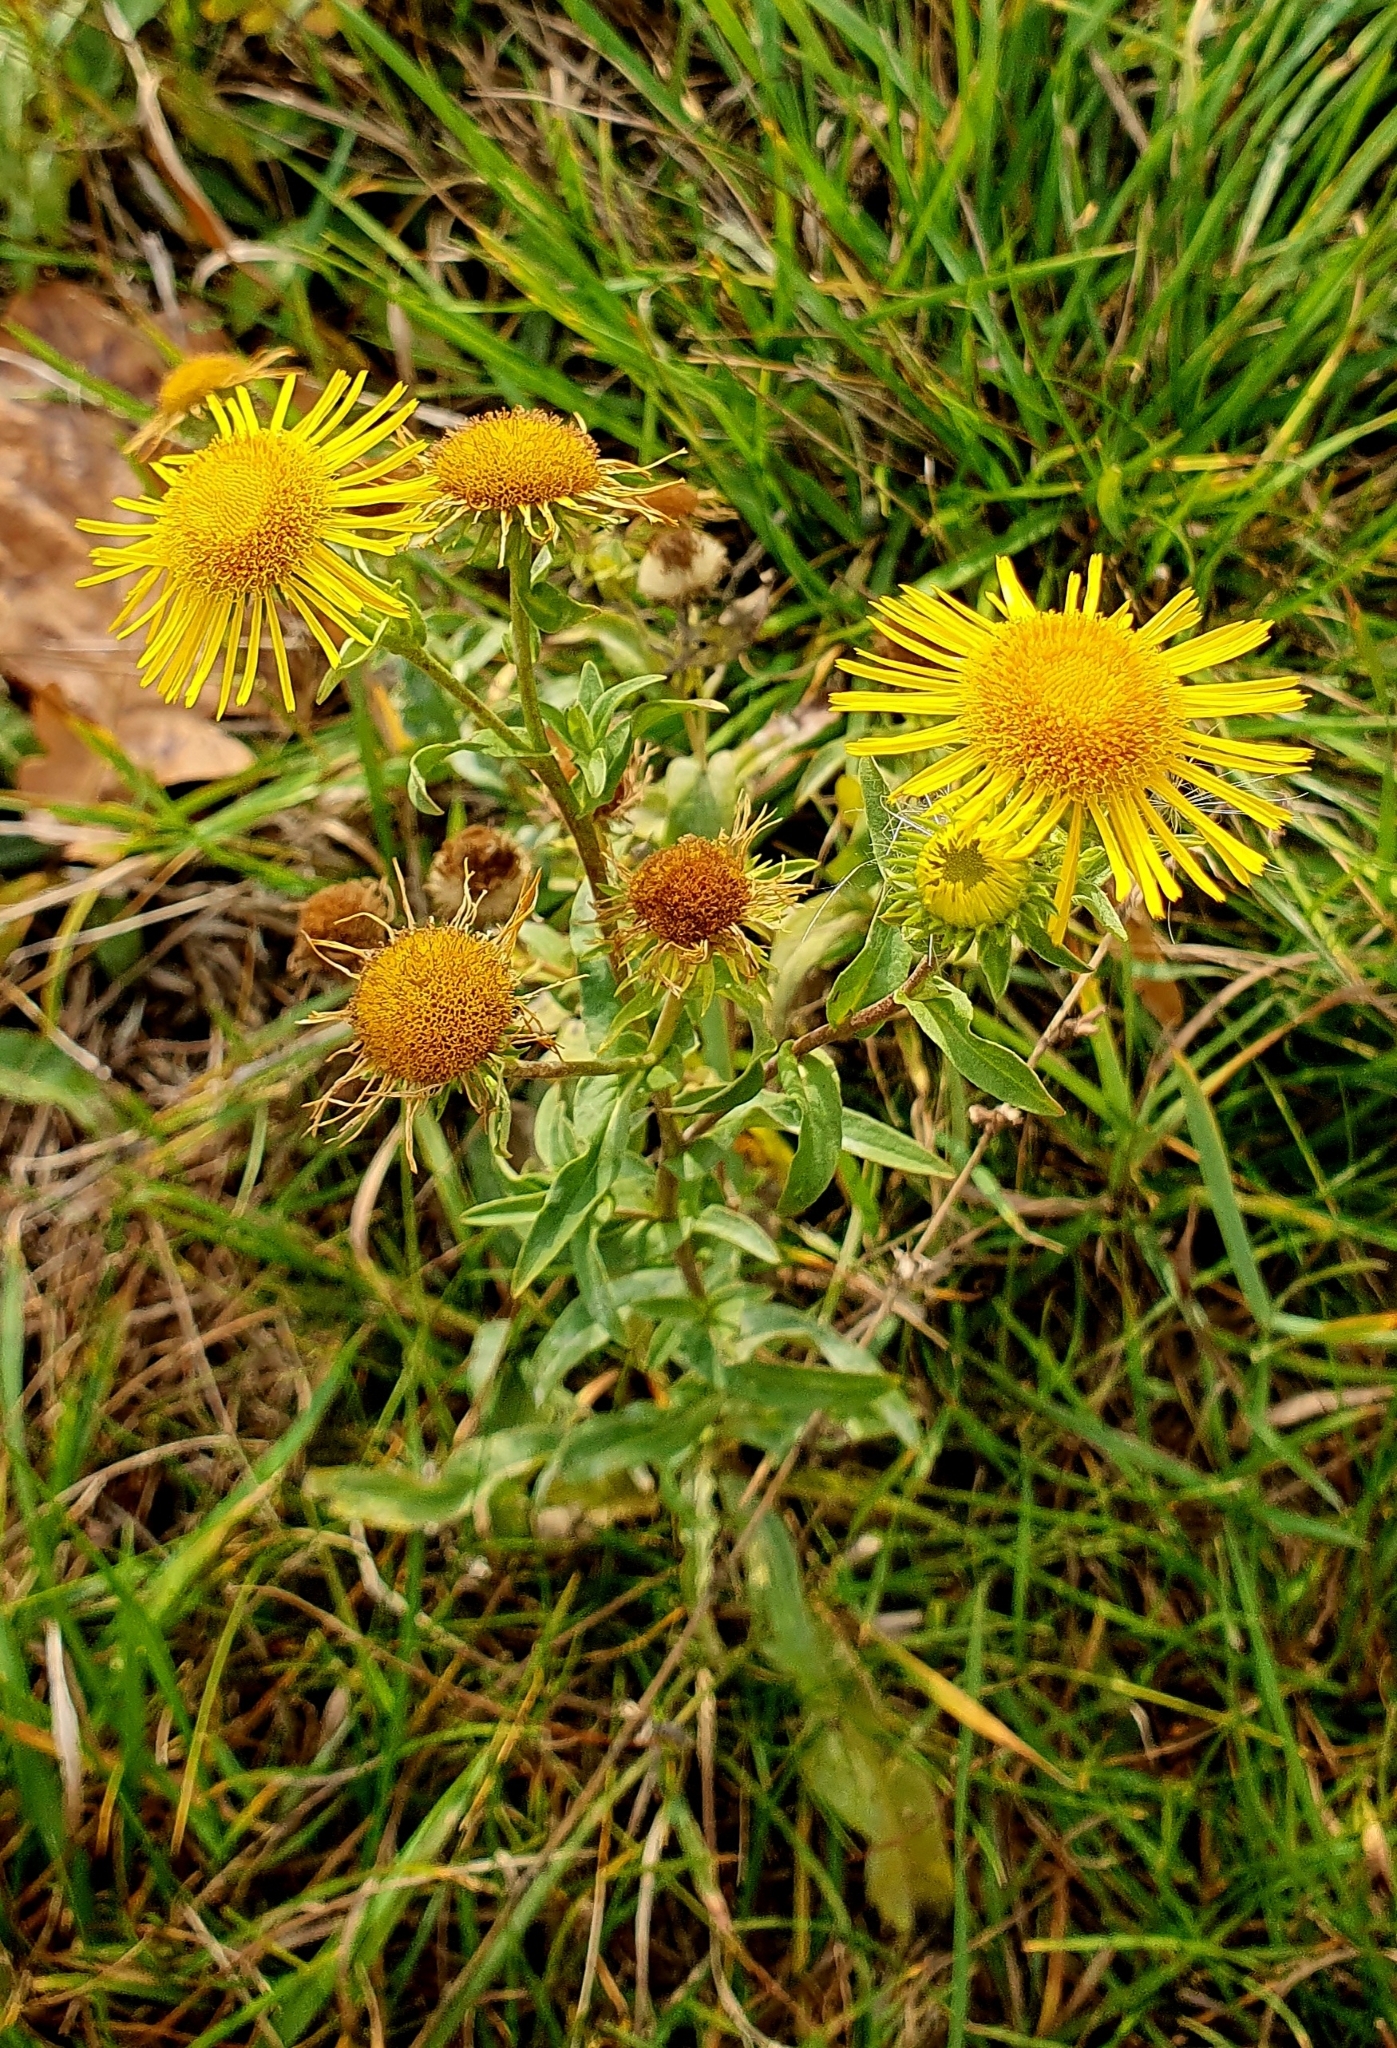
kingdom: Plantae
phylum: Tracheophyta
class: Magnoliopsida
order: Asterales
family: Asteraceae
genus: Pentanema
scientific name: Pentanema britannicum
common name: British elecampane
